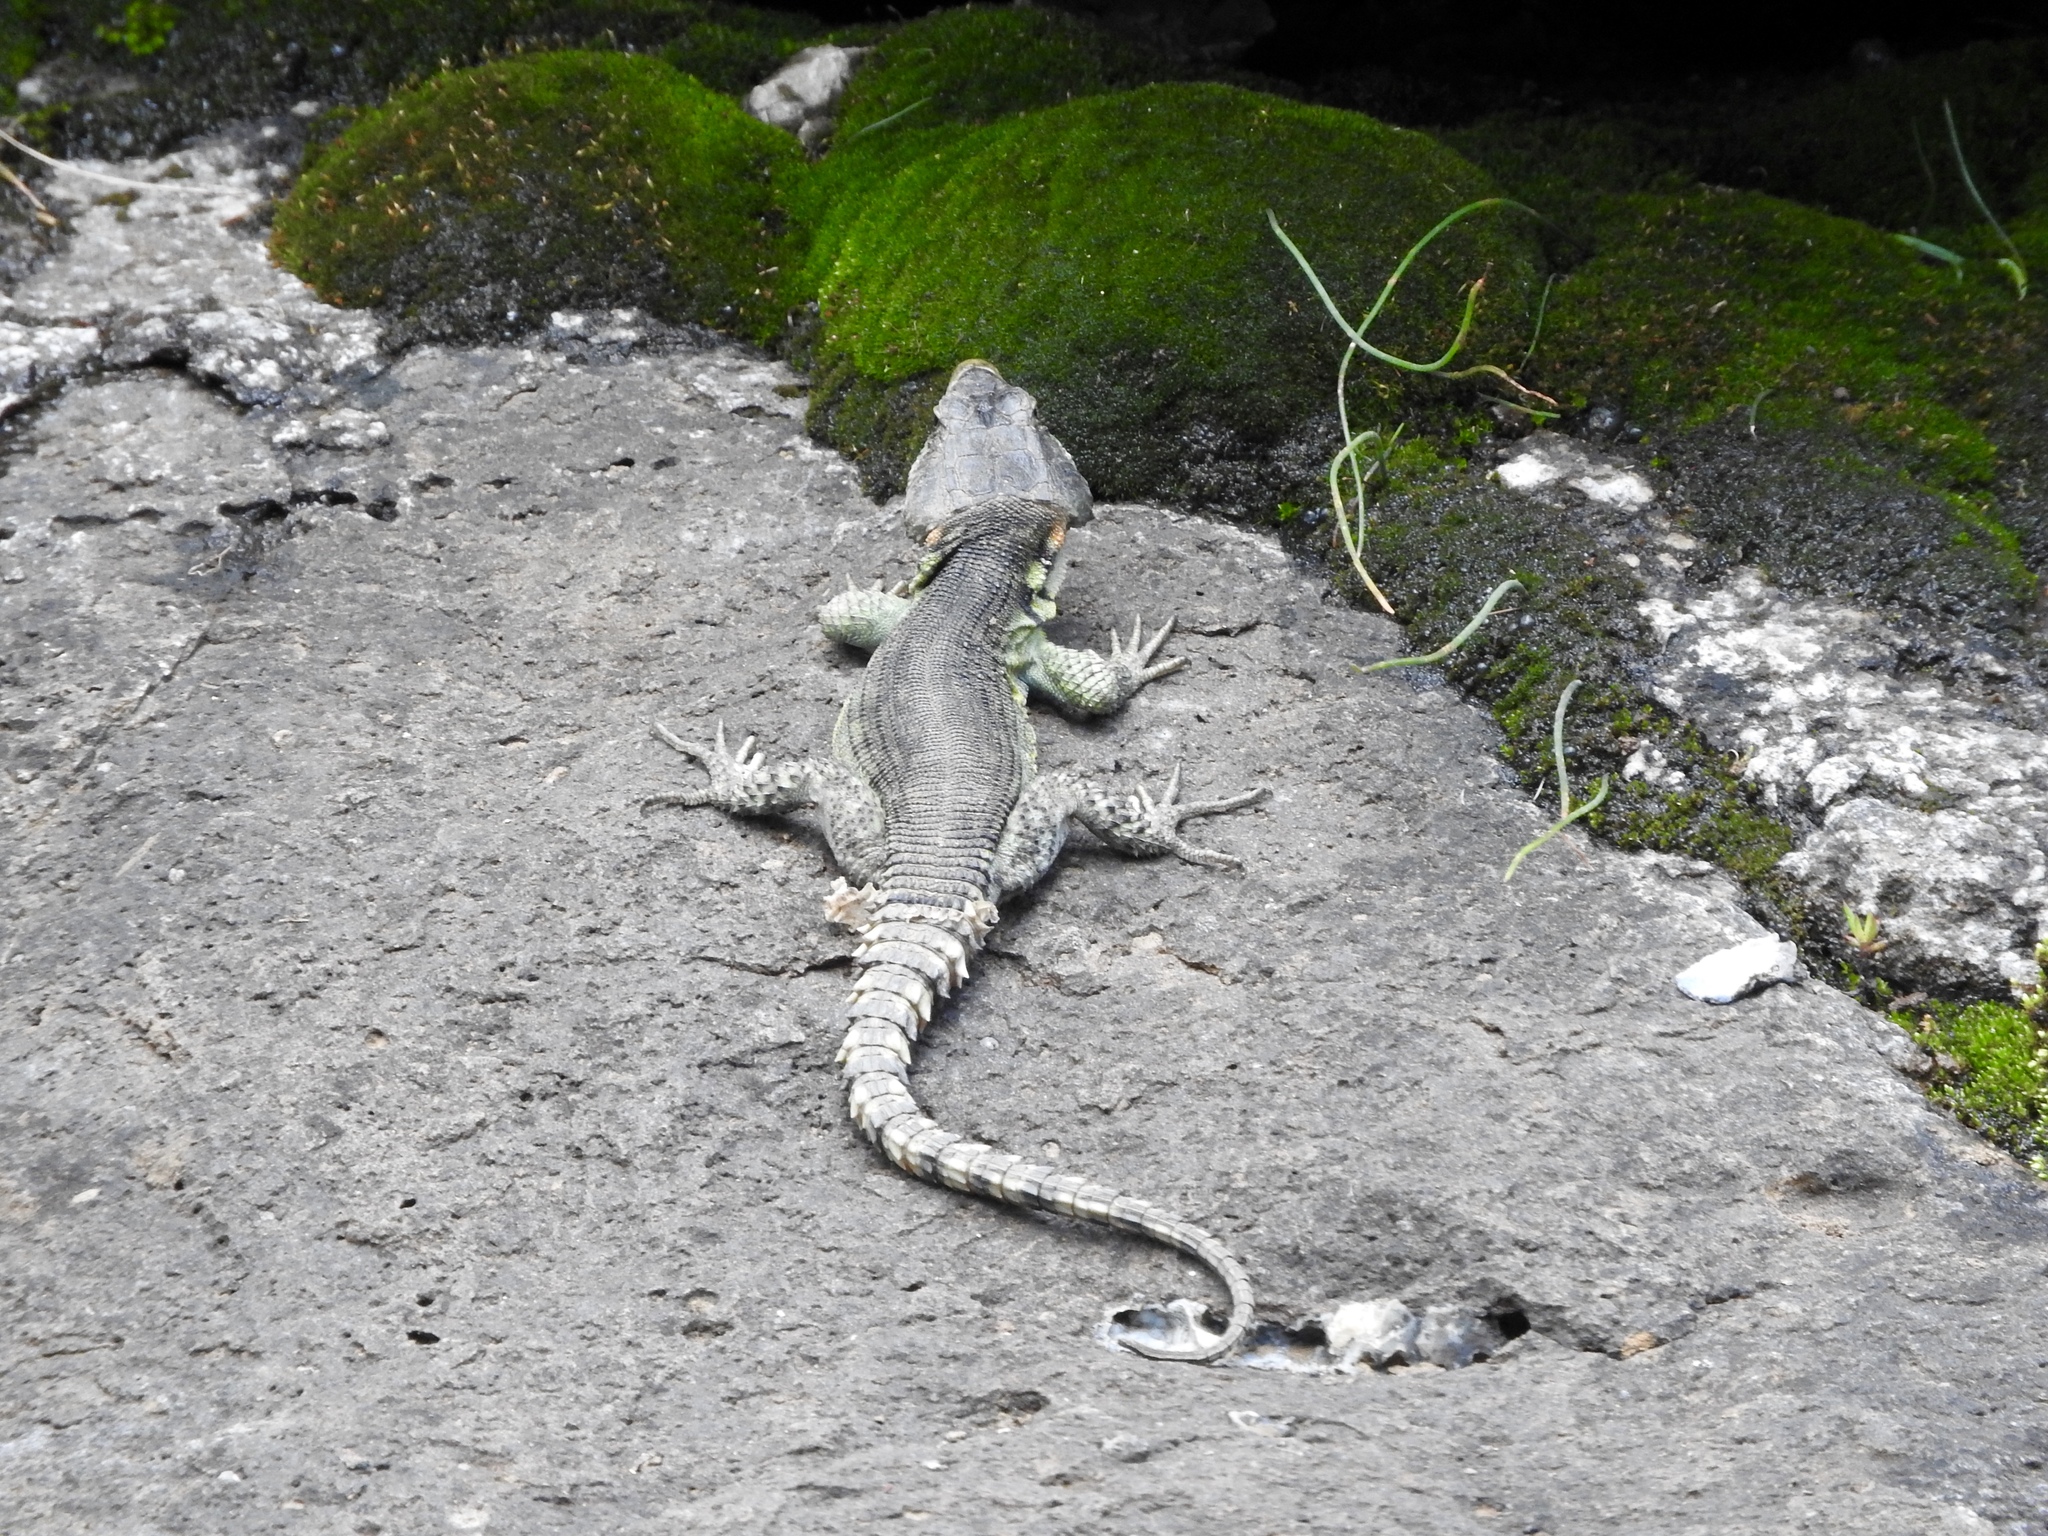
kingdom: Animalia
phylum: Chordata
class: Squamata
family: Cordylidae
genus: Pseudocordylus
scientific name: Pseudocordylus subviridis
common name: Drakensberg crag lizard
